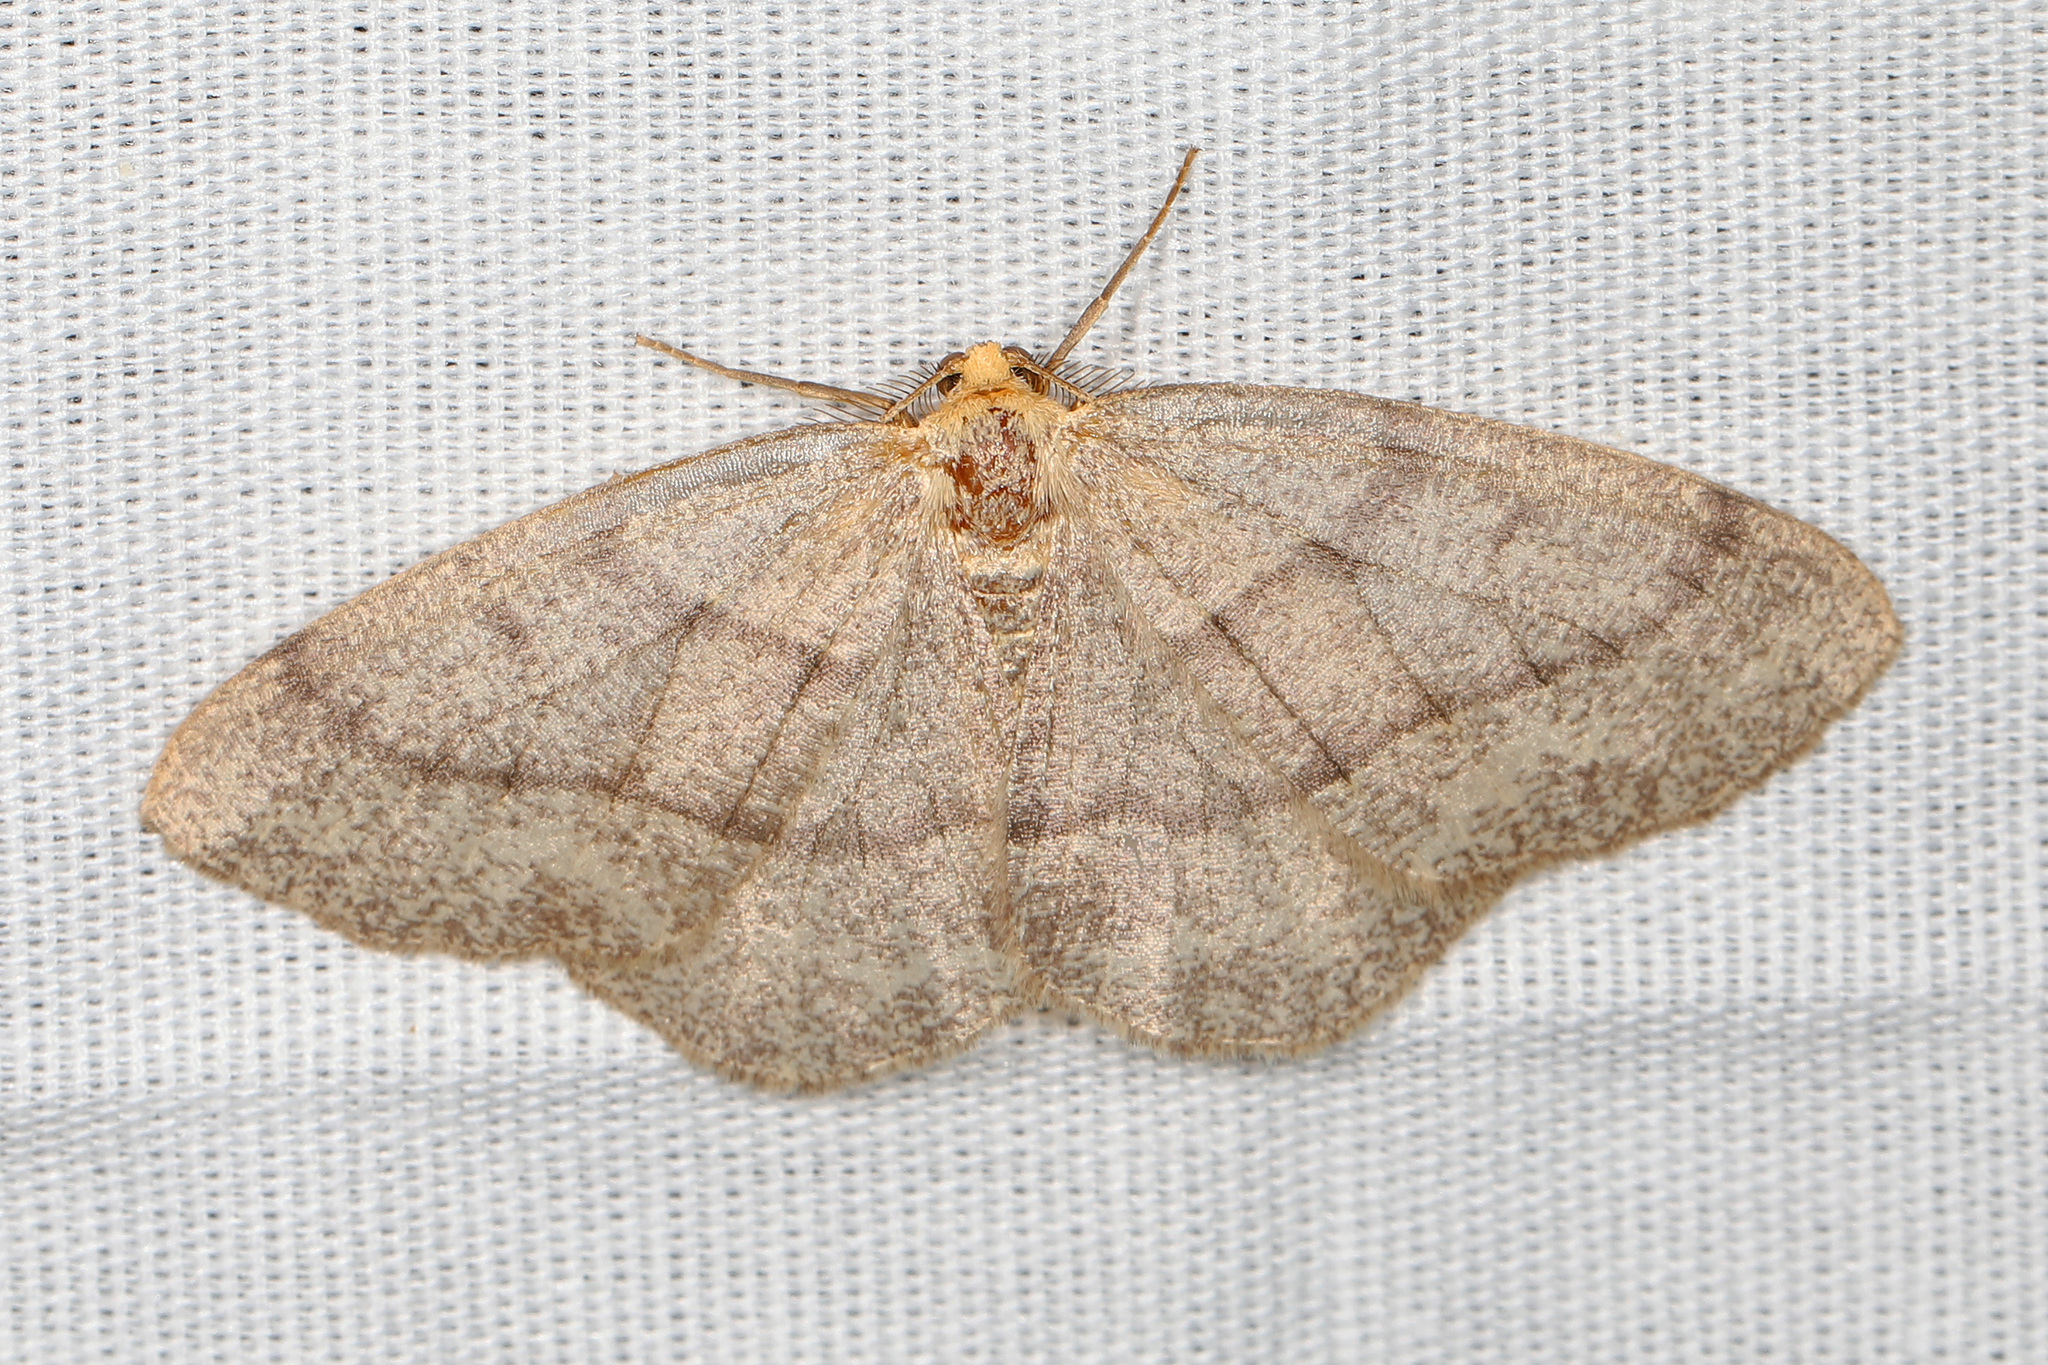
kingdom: Animalia
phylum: Arthropoda
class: Insecta
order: Lepidoptera
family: Geometridae
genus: Lambdina
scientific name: Lambdina fervidaria
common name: Curve-lined looper moth
